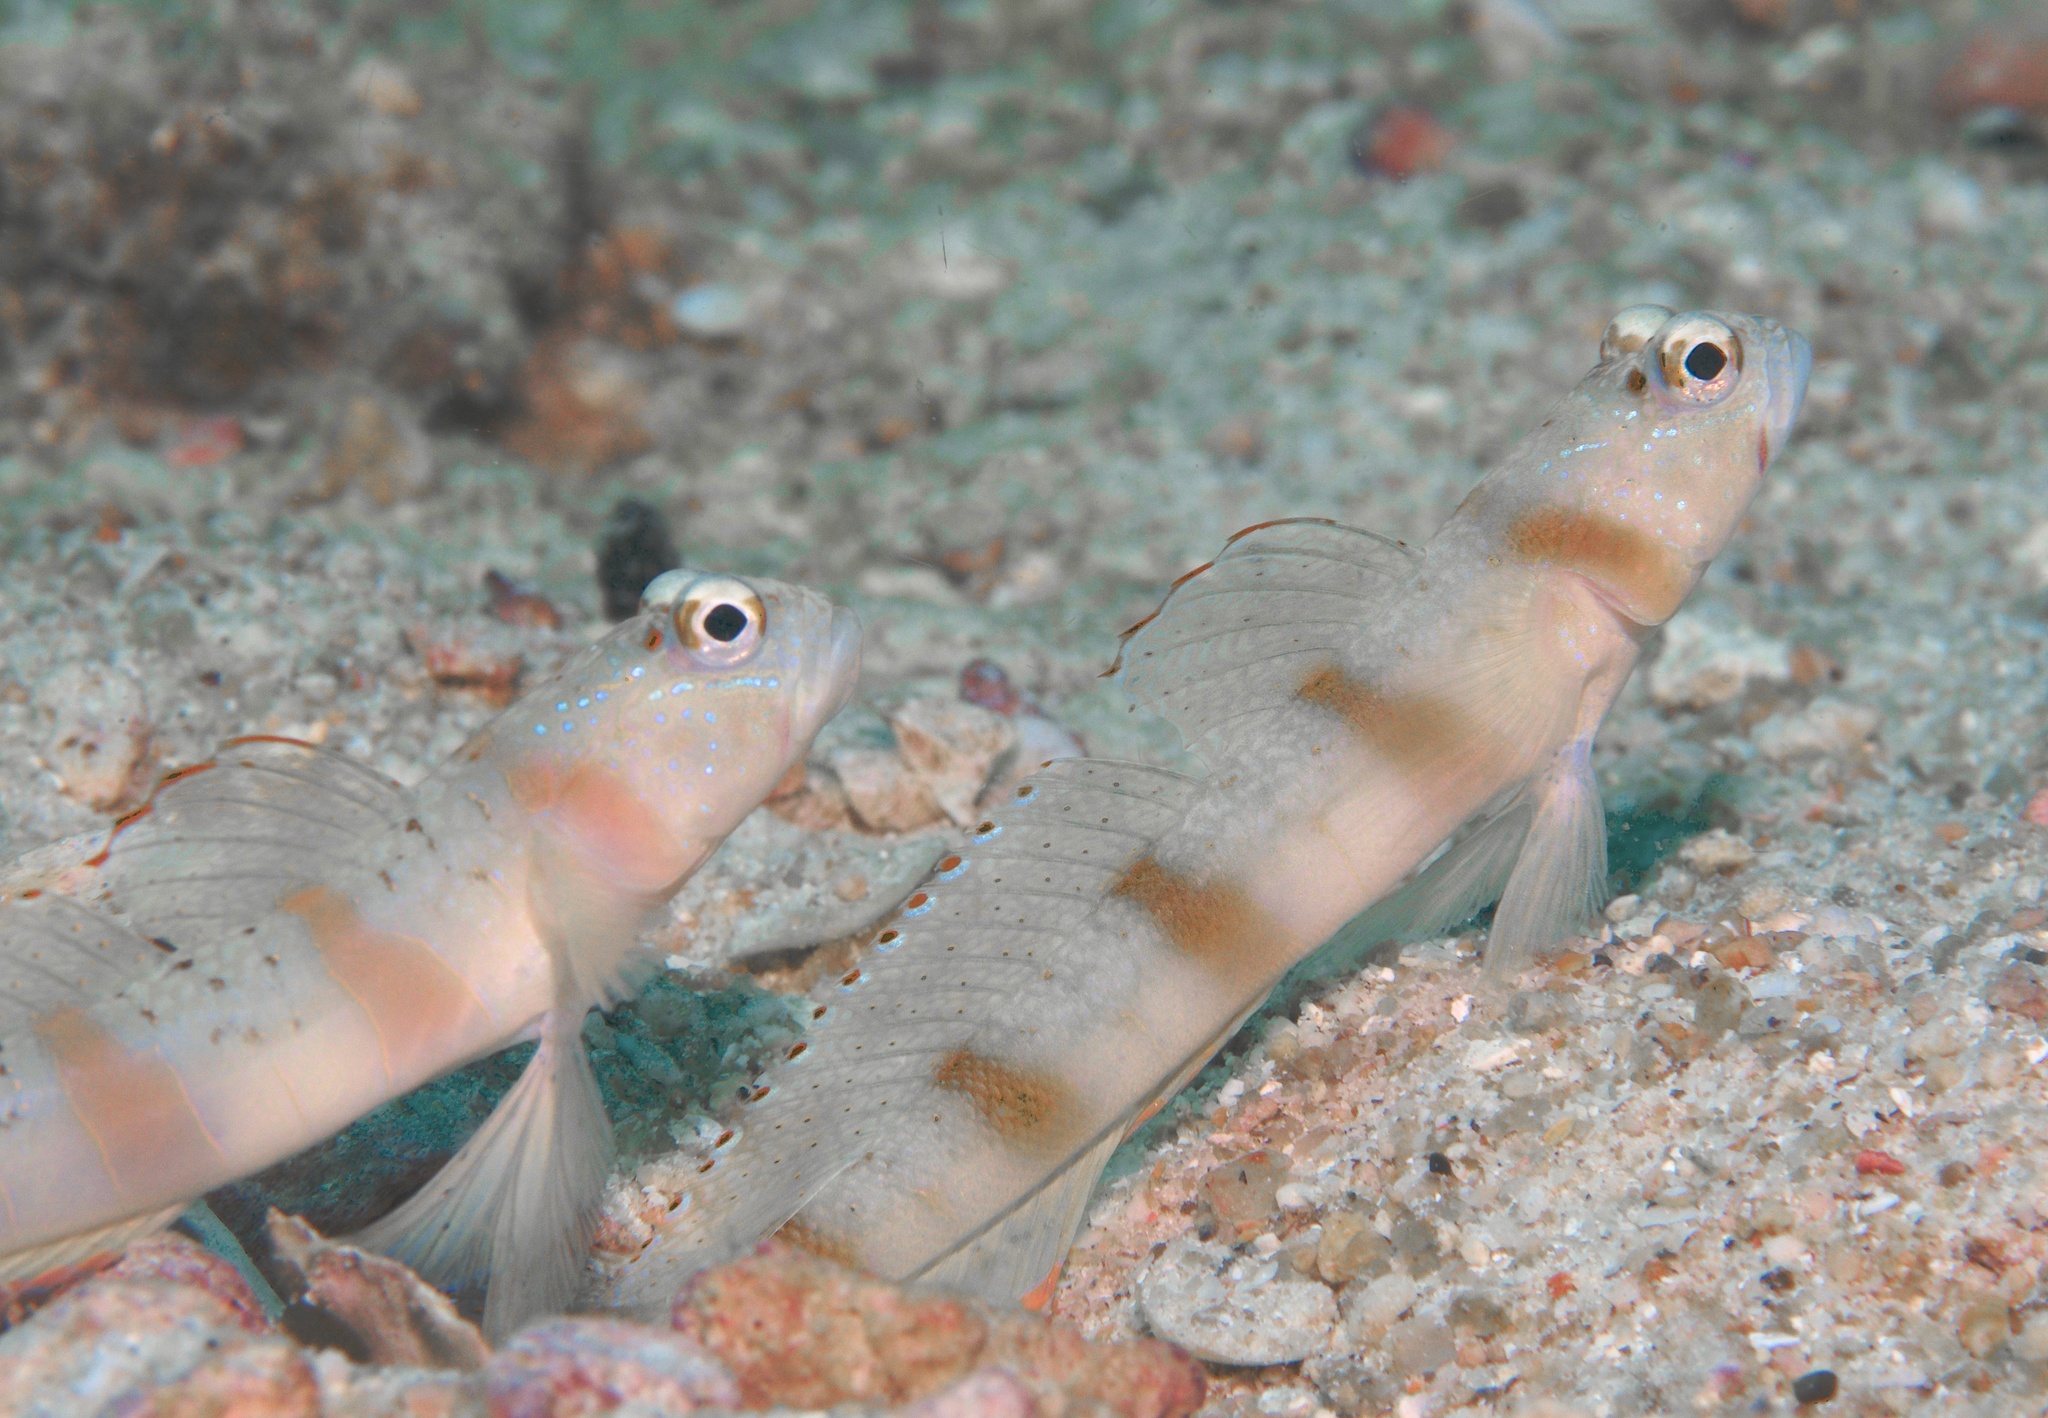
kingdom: Animalia
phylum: Chordata
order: Perciformes
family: Gobiidae
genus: Amblyeleotris
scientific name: Amblyeleotris rubrimarginata
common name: Redmargin shrimpgoby
